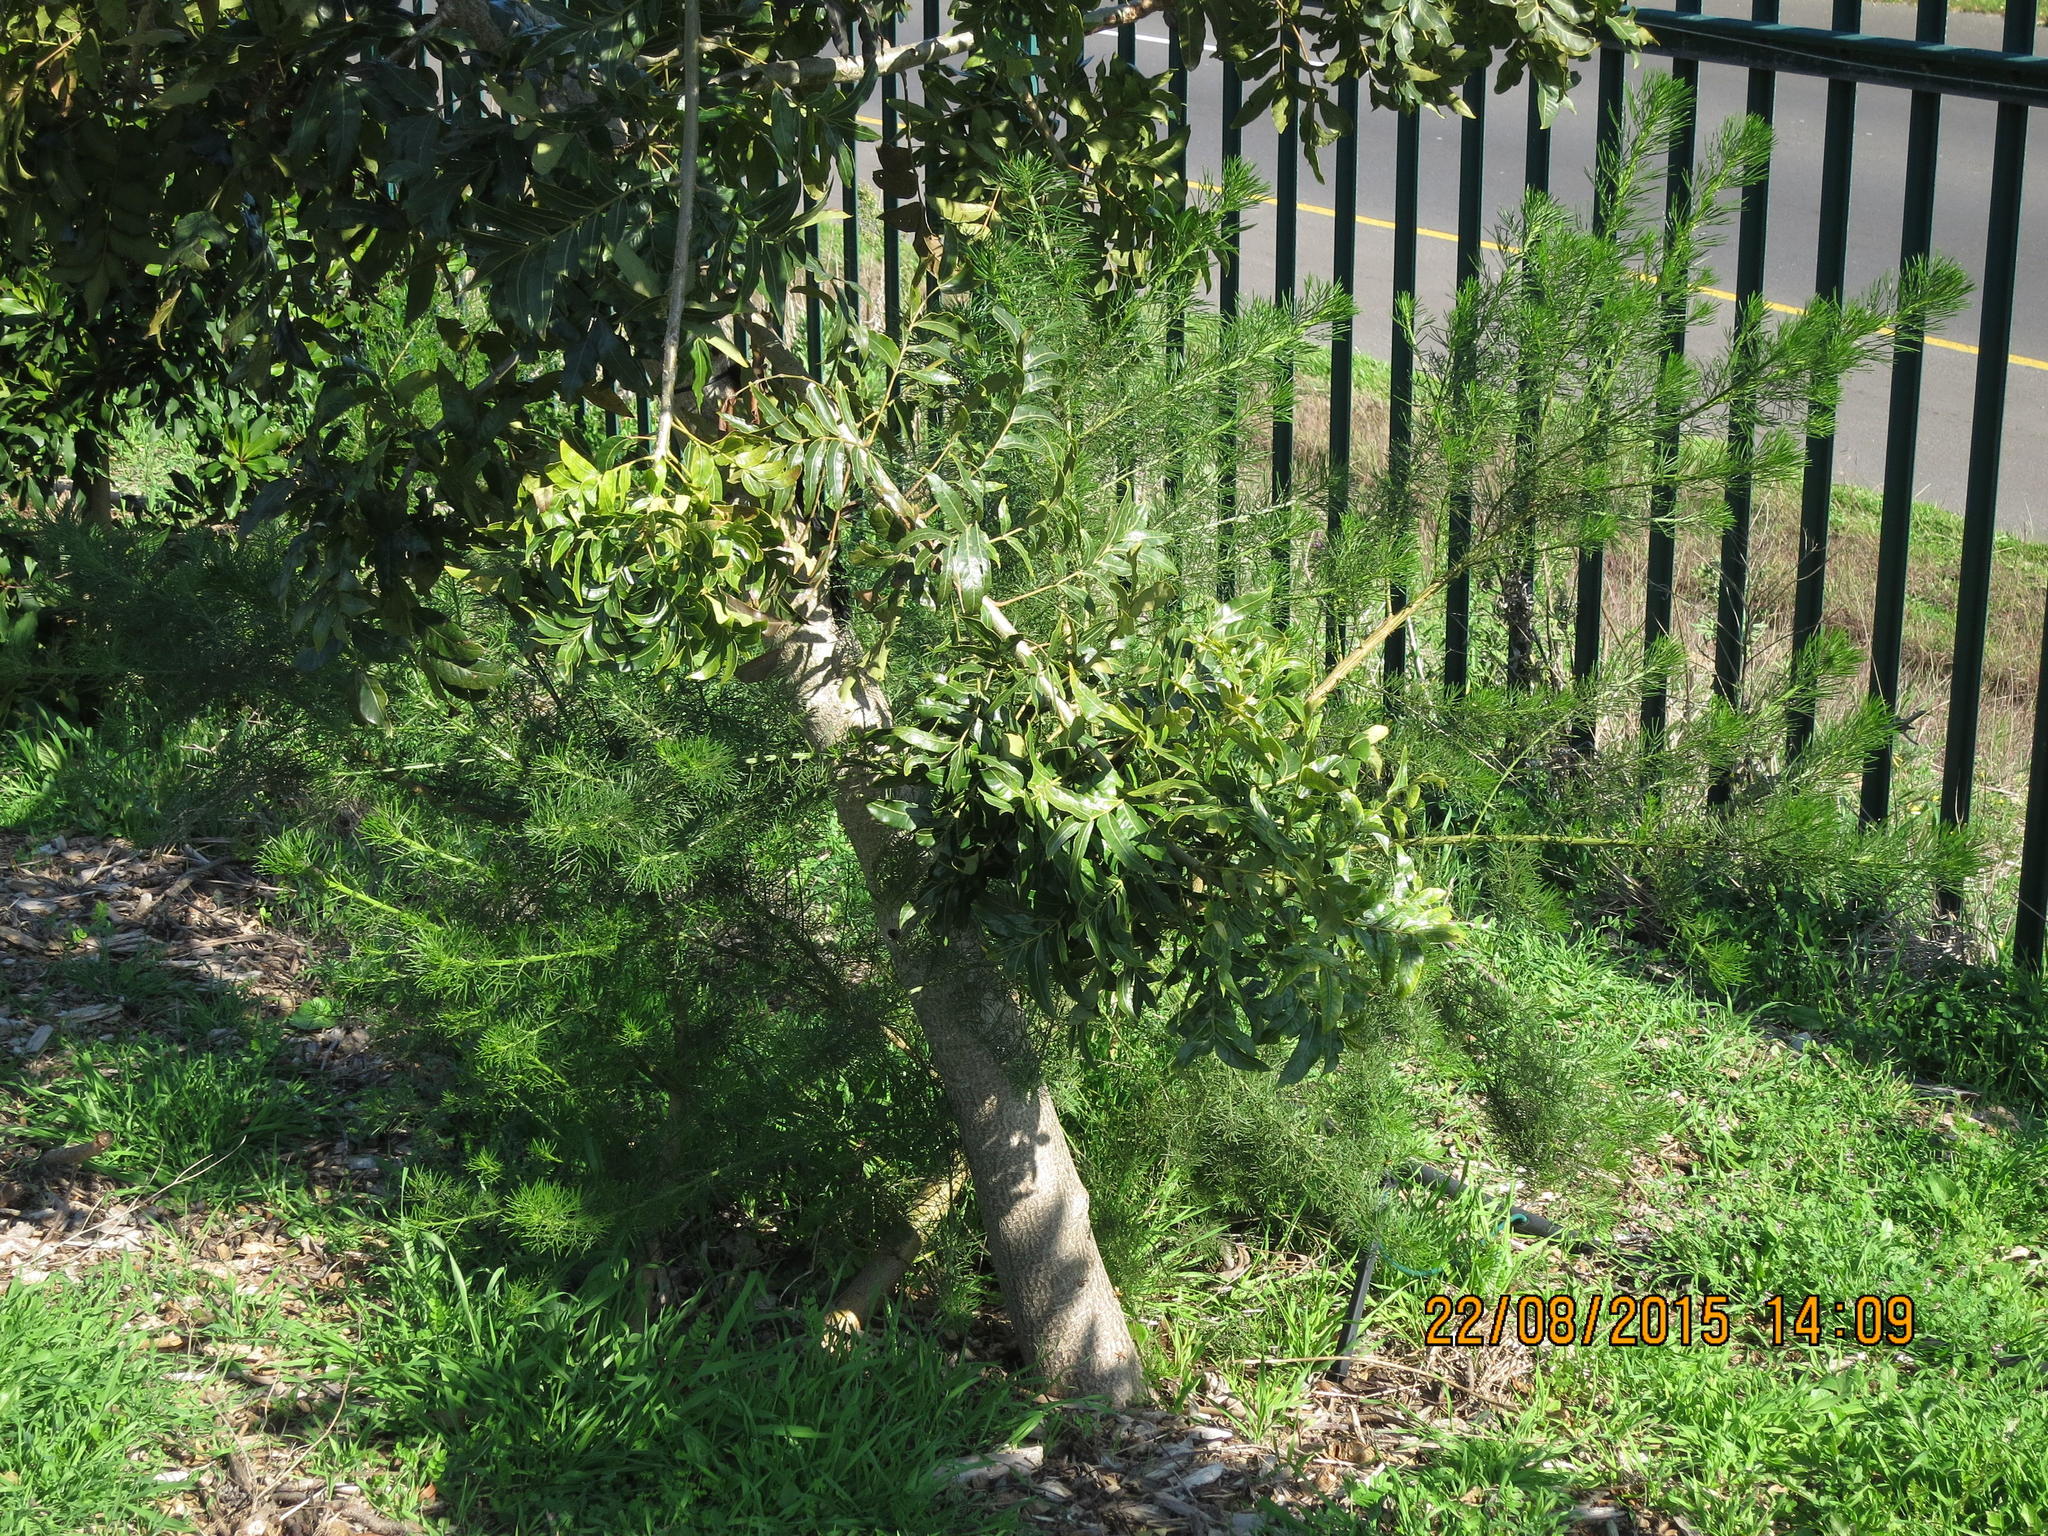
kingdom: Plantae
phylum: Tracheophyta
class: Magnoliopsida
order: Fabales
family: Fabaceae
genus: Psoralea
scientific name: Psoralea pinnata
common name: African scurfpea
